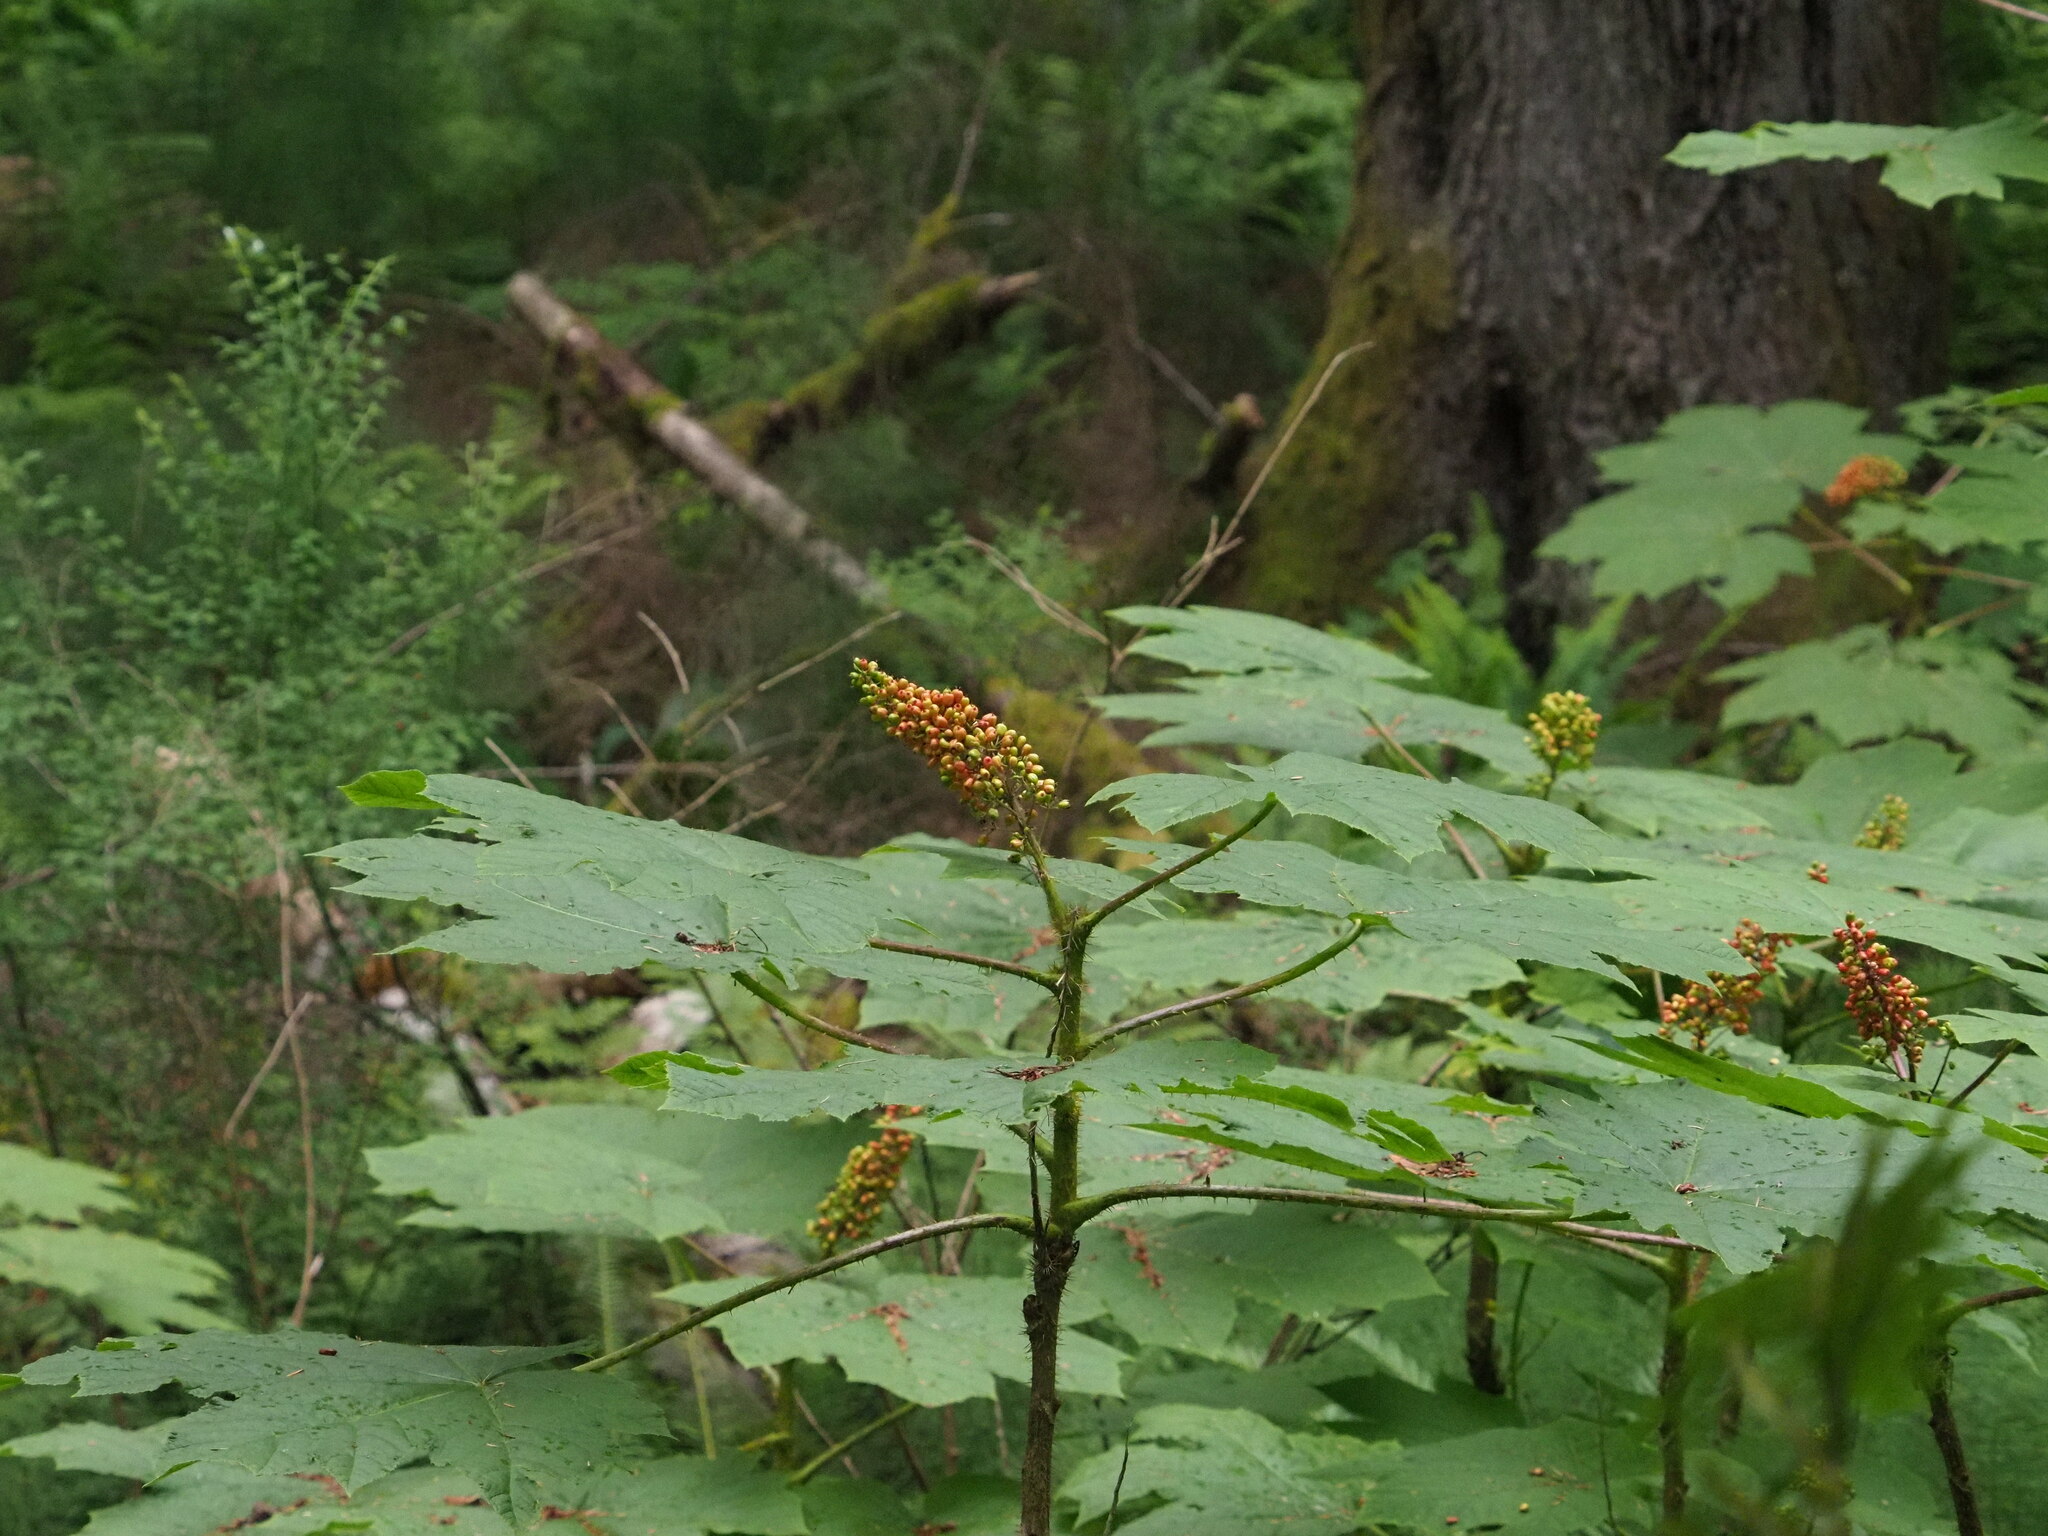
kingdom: Plantae
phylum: Tracheophyta
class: Magnoliopsida
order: Apiales
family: Araliaceae
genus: Oplopanax
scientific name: Oplopanax horridus
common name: Devil's walking-stick
